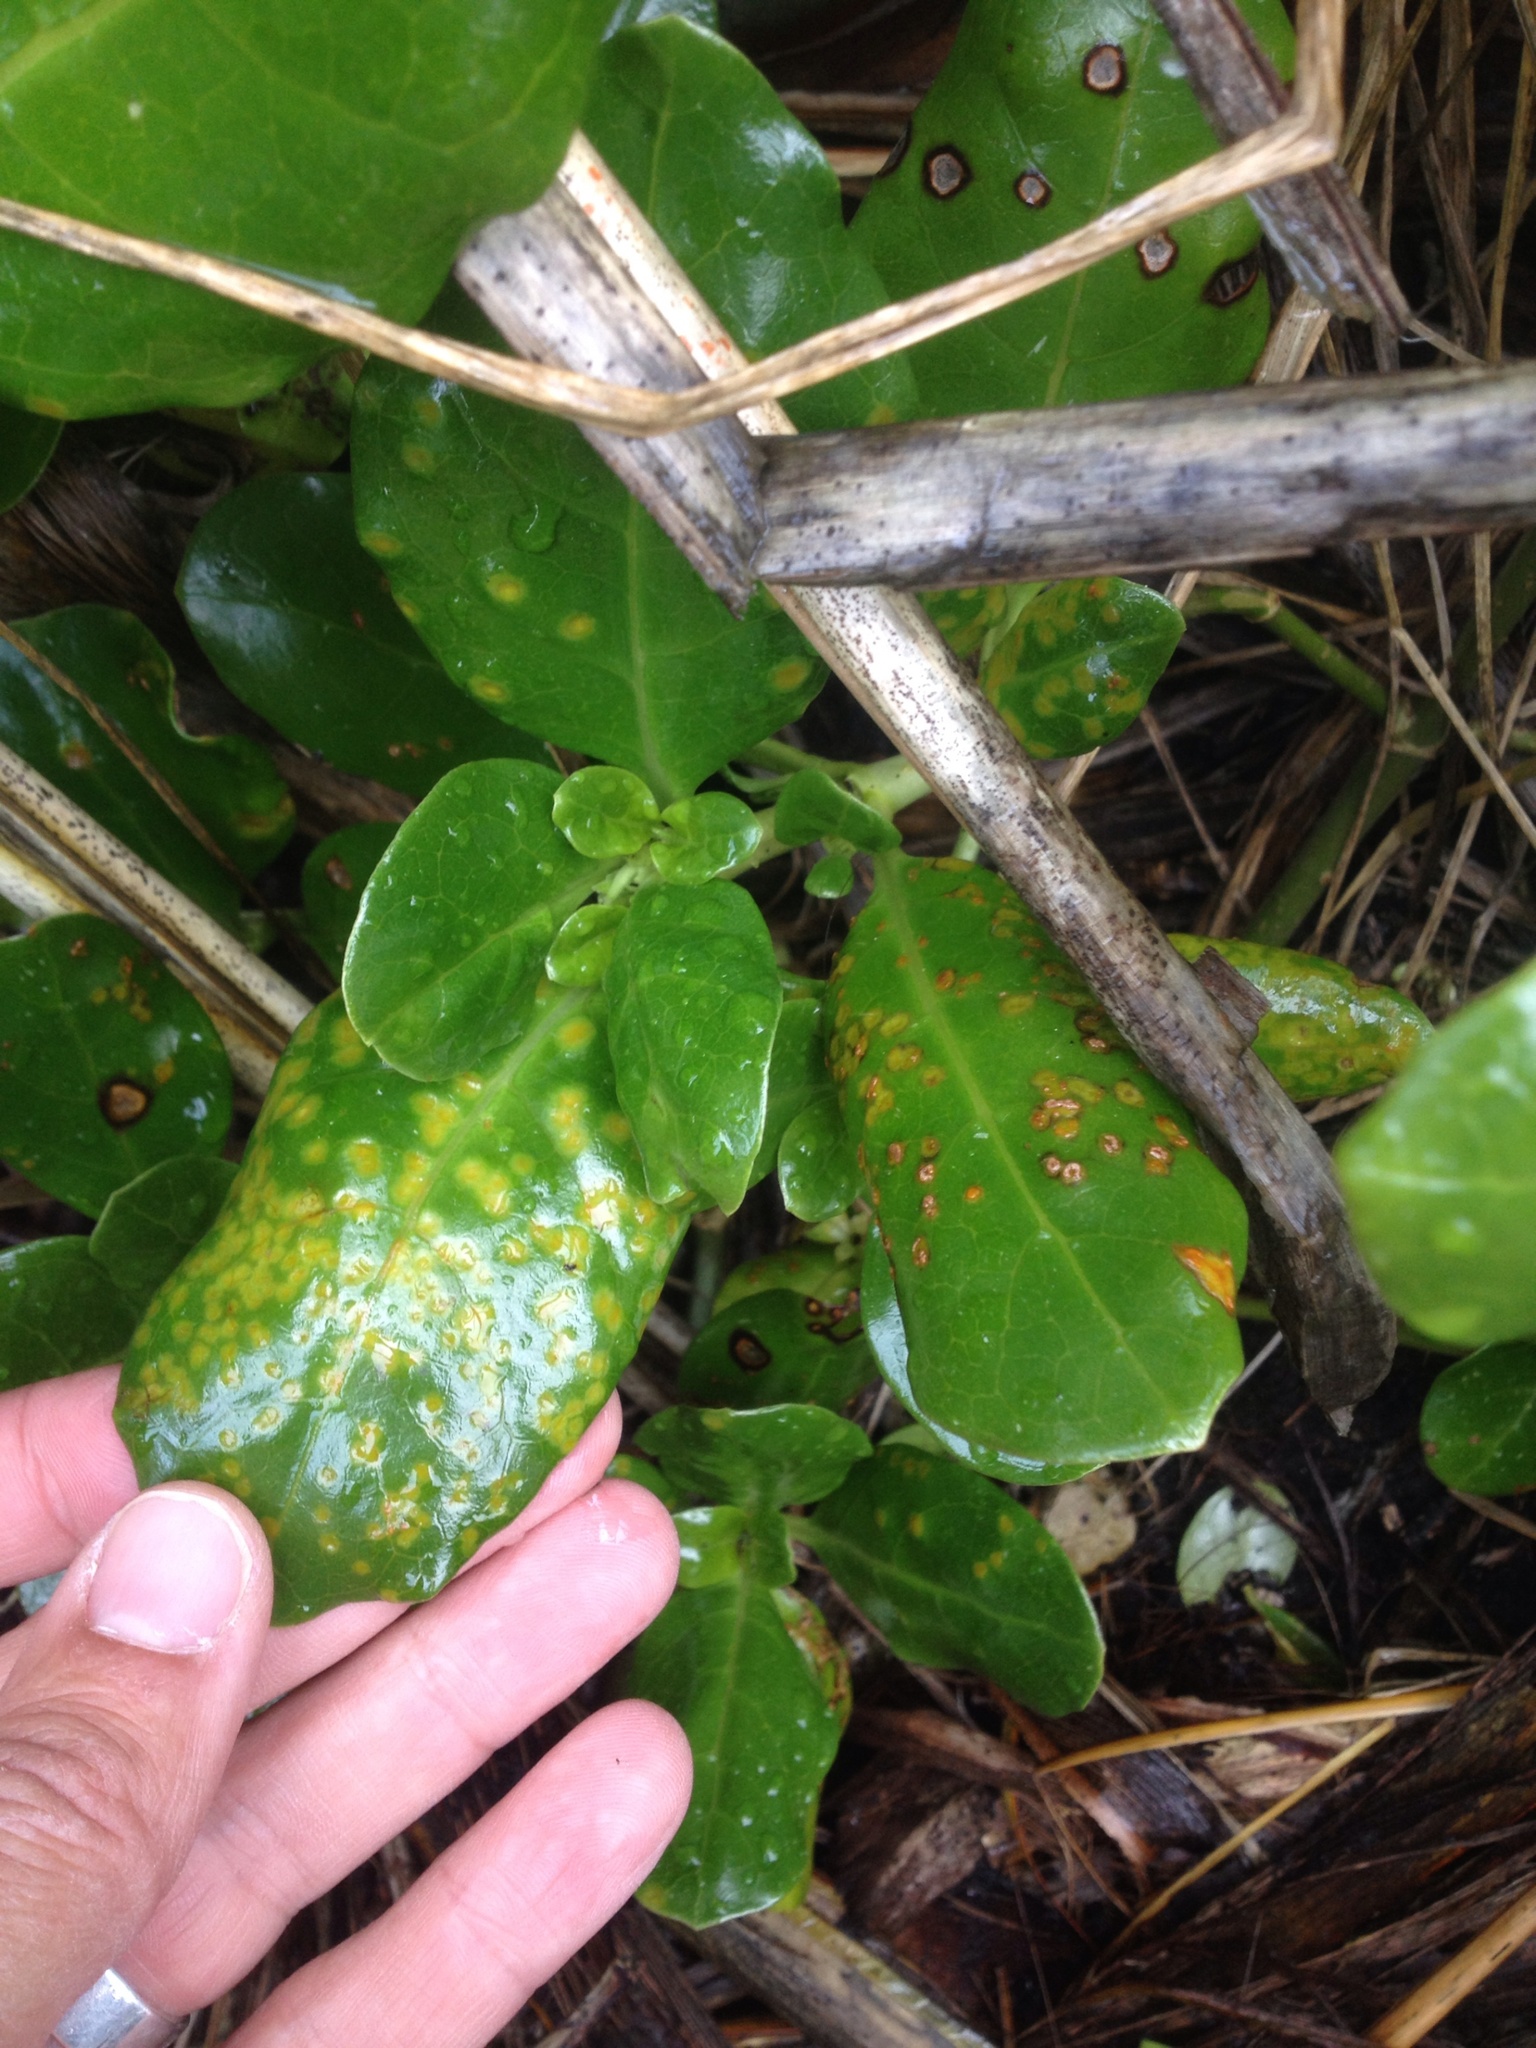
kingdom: Fungi
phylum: Basidiomycota
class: Pucciniomycetes
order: Pucciniales
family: Pucciniaceae
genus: Puccinia
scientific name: Puccinia coprosmae
